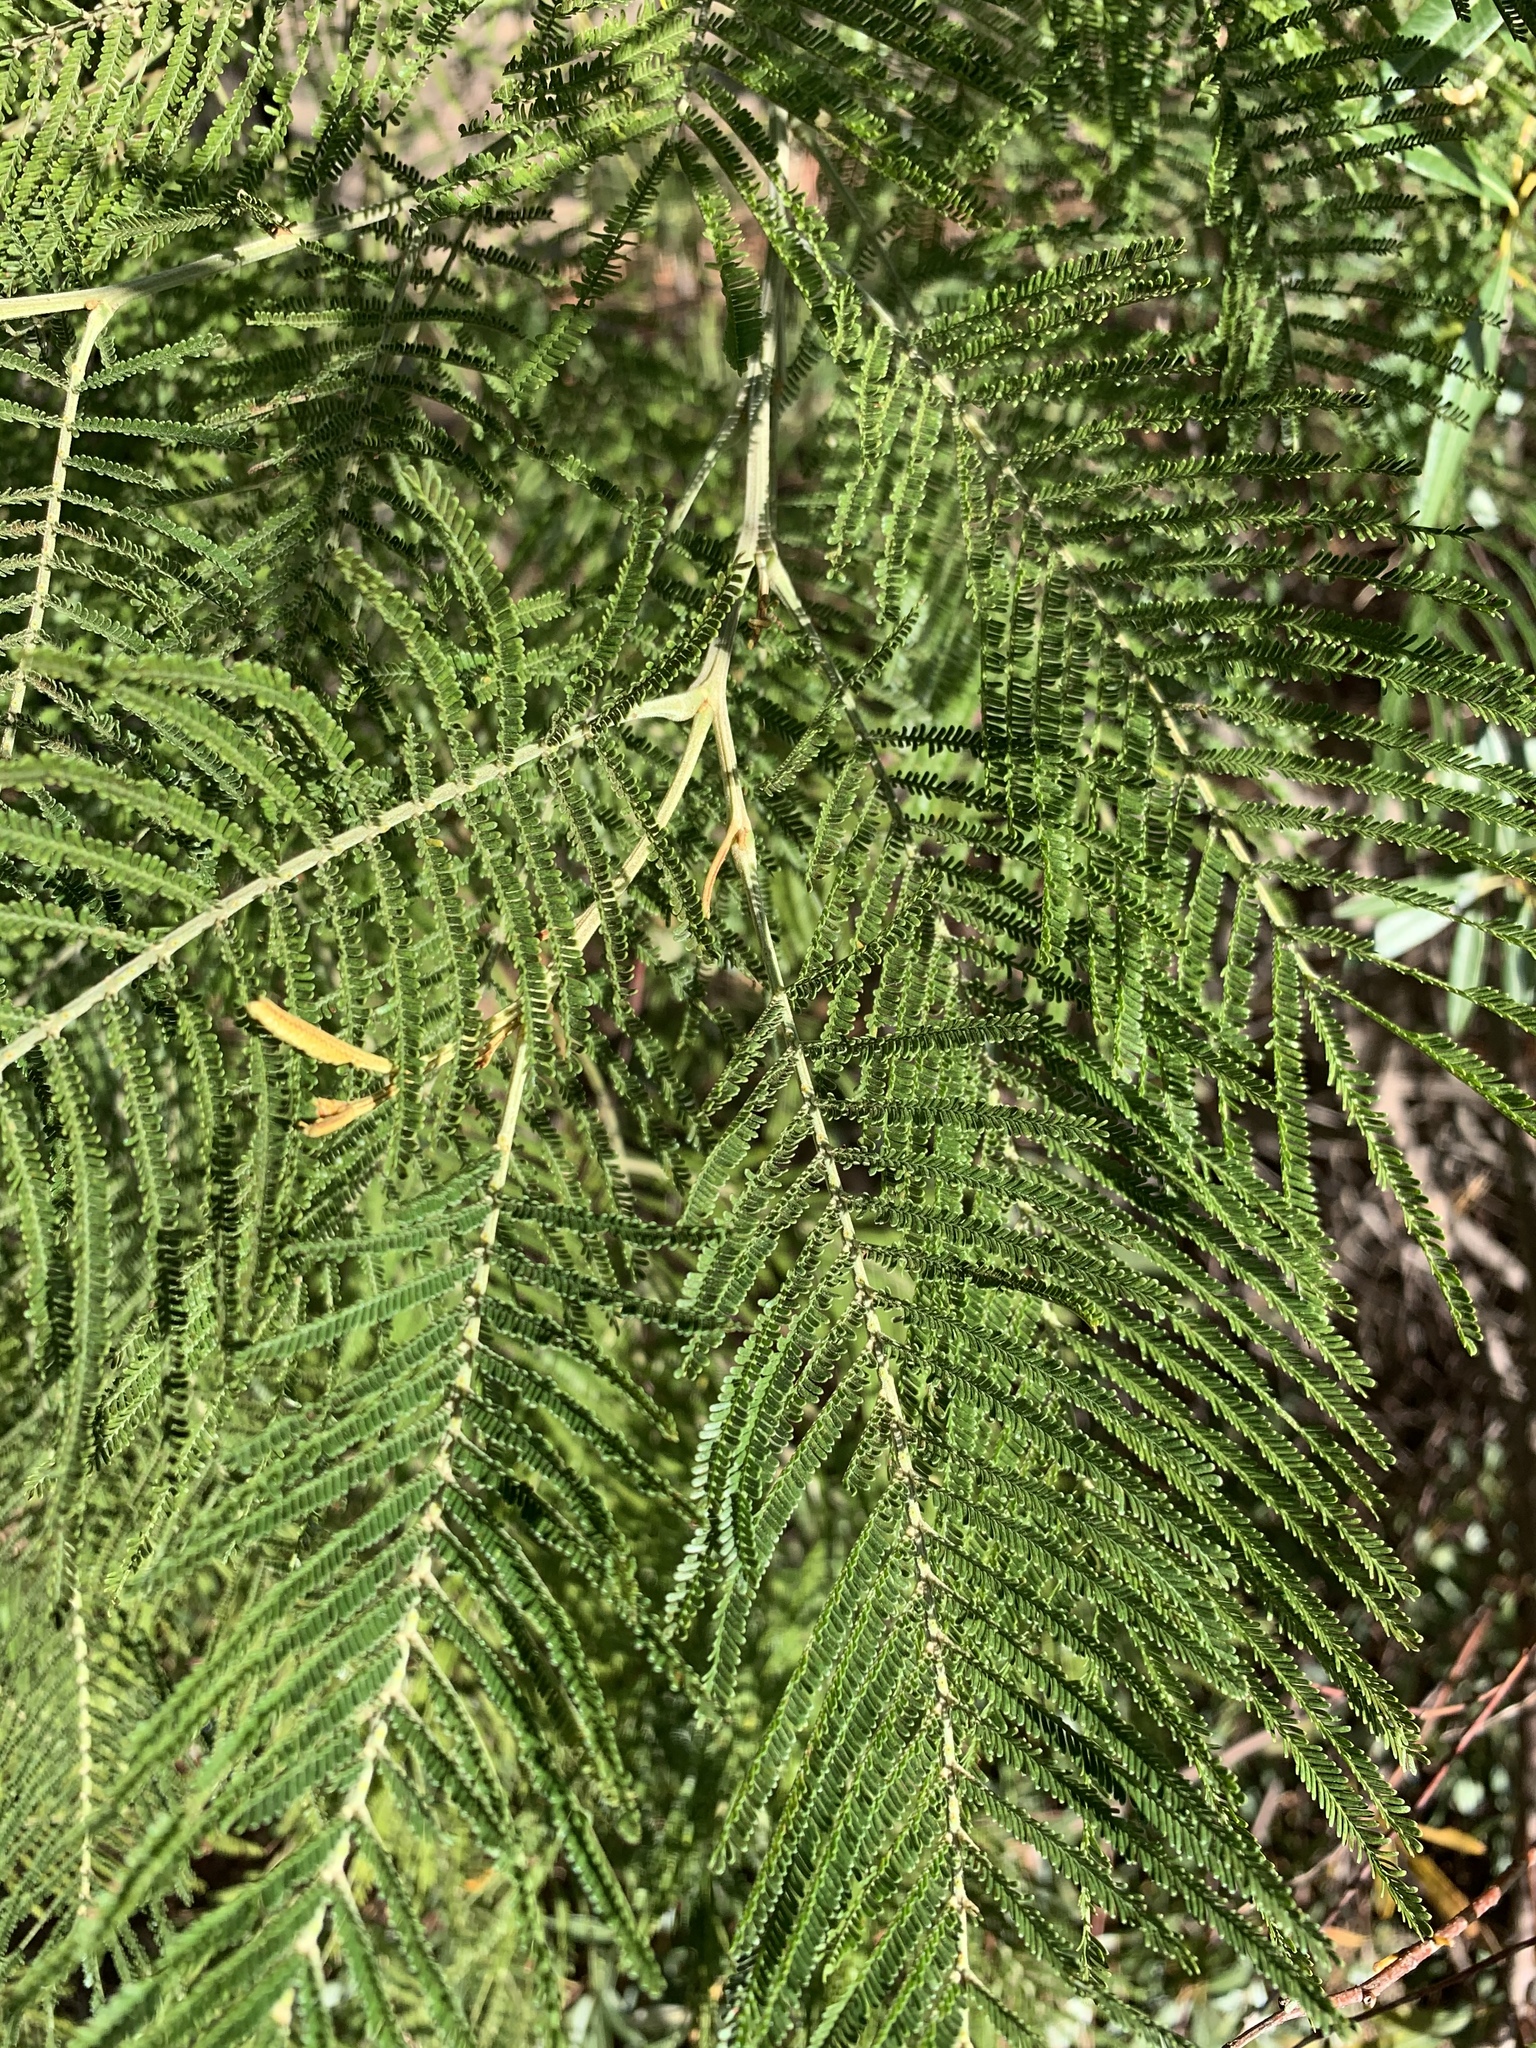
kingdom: Plantae
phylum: Tracheophyta
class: Magnoliopsida
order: Fabales
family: Fabaceae
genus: Acacia
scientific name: Acacia mearnsii
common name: Black wattle
